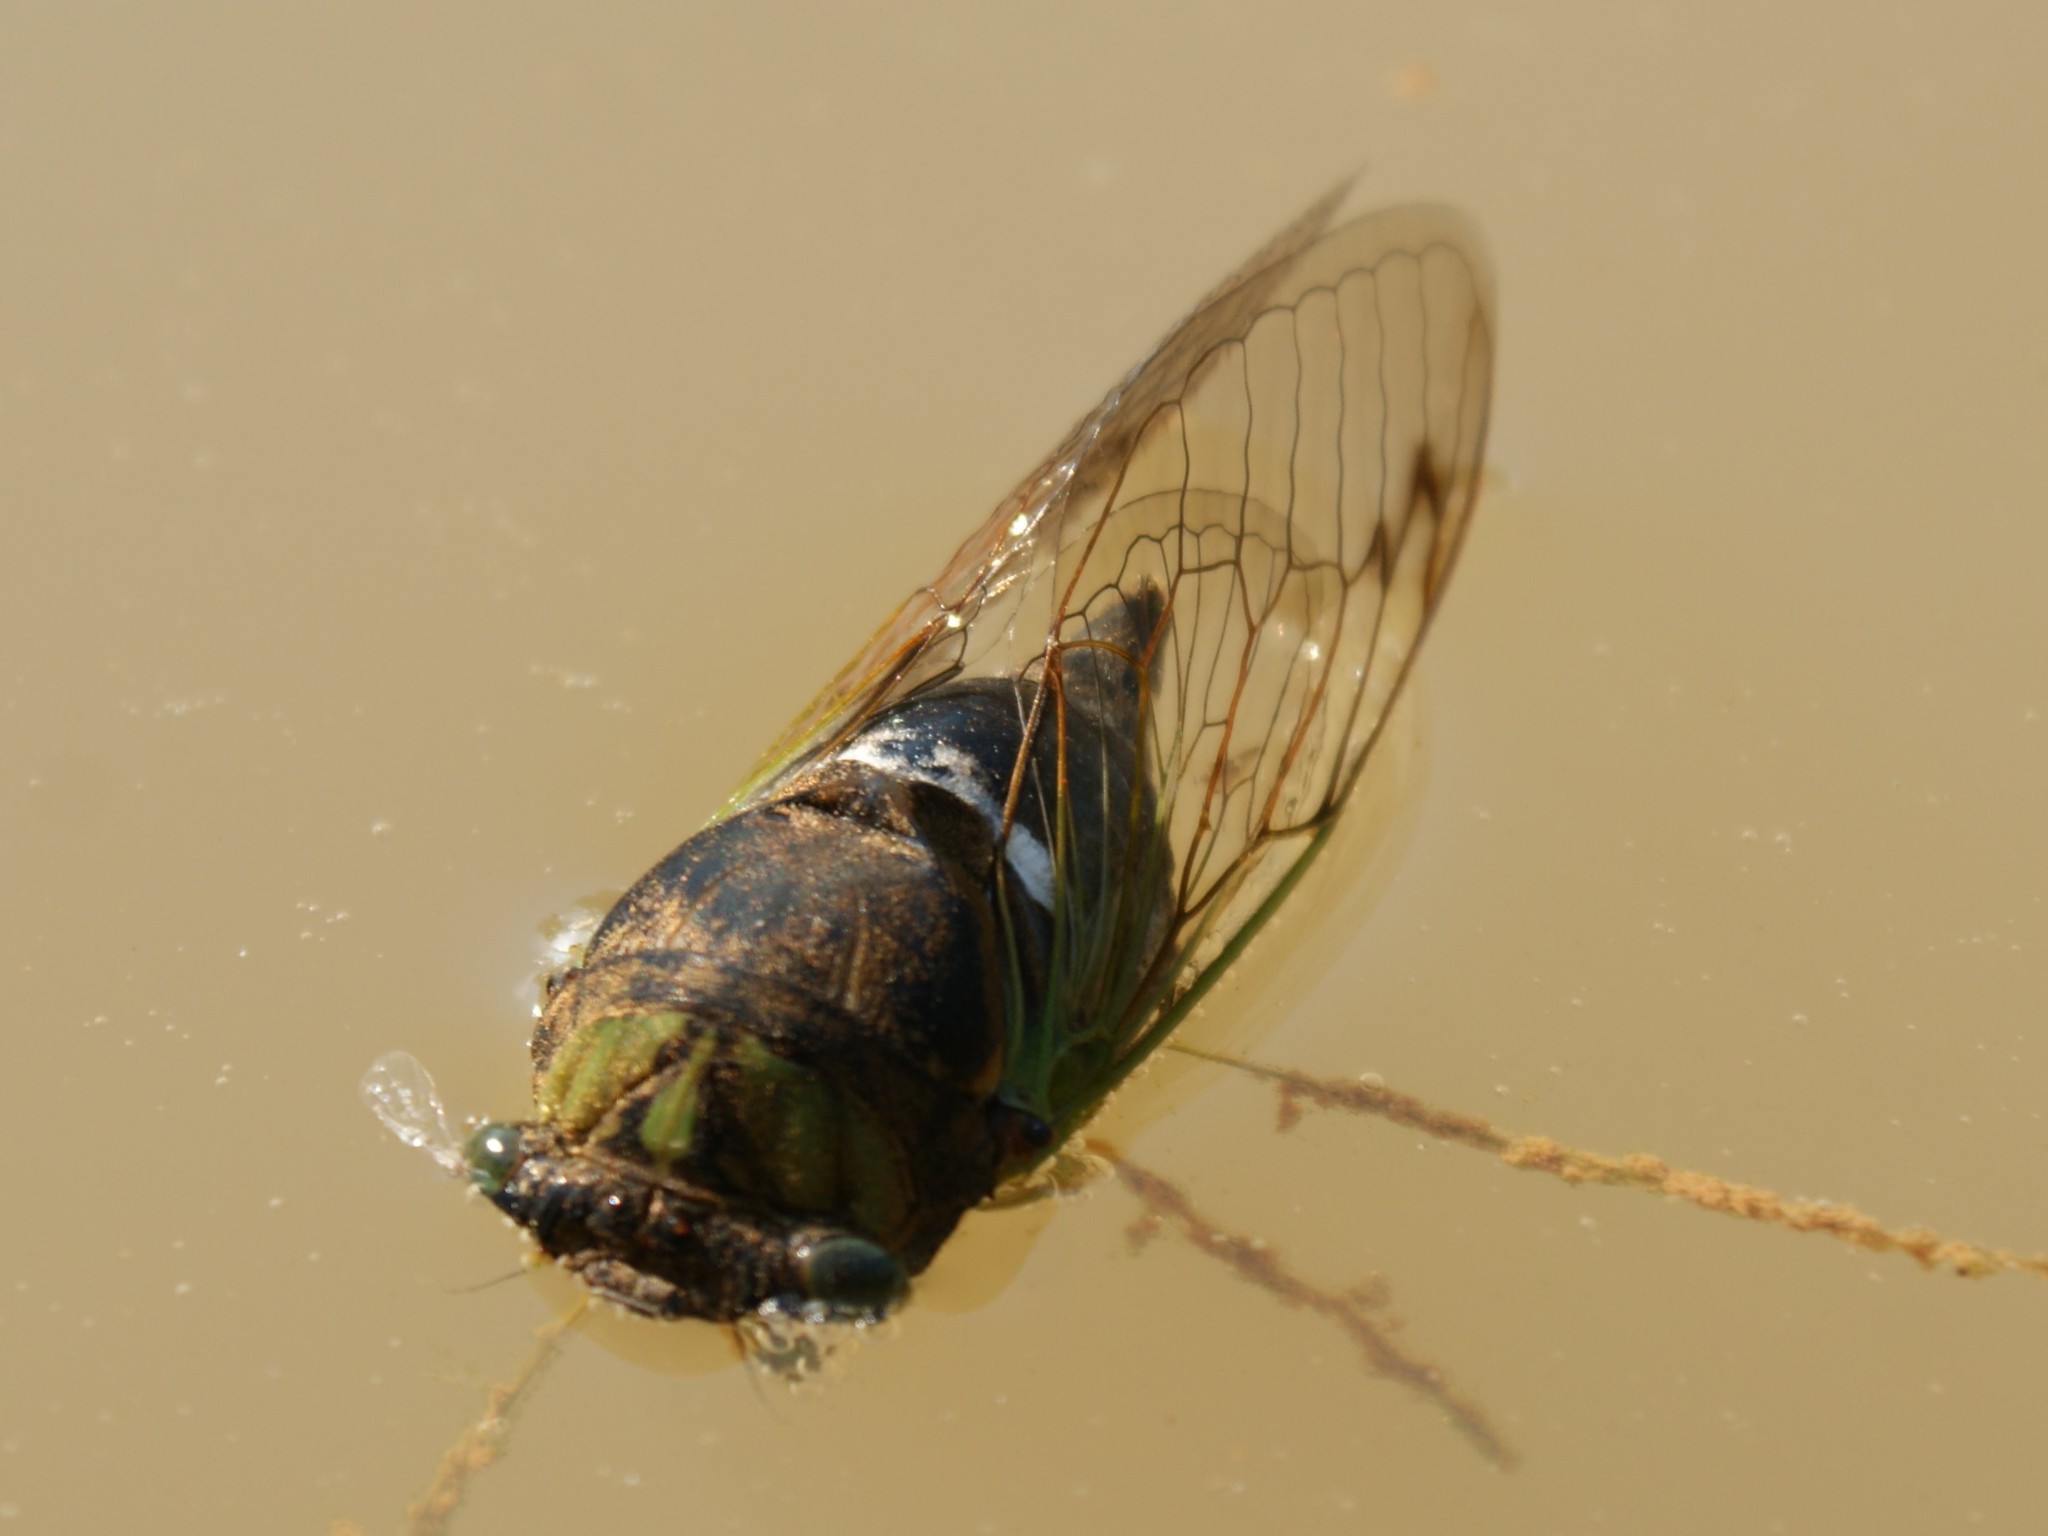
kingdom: Animalia
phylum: Arthropoda
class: Insecta
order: Hemiptera
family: Cicadidae
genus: Neotibicen
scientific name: Neotibicen tibicen
